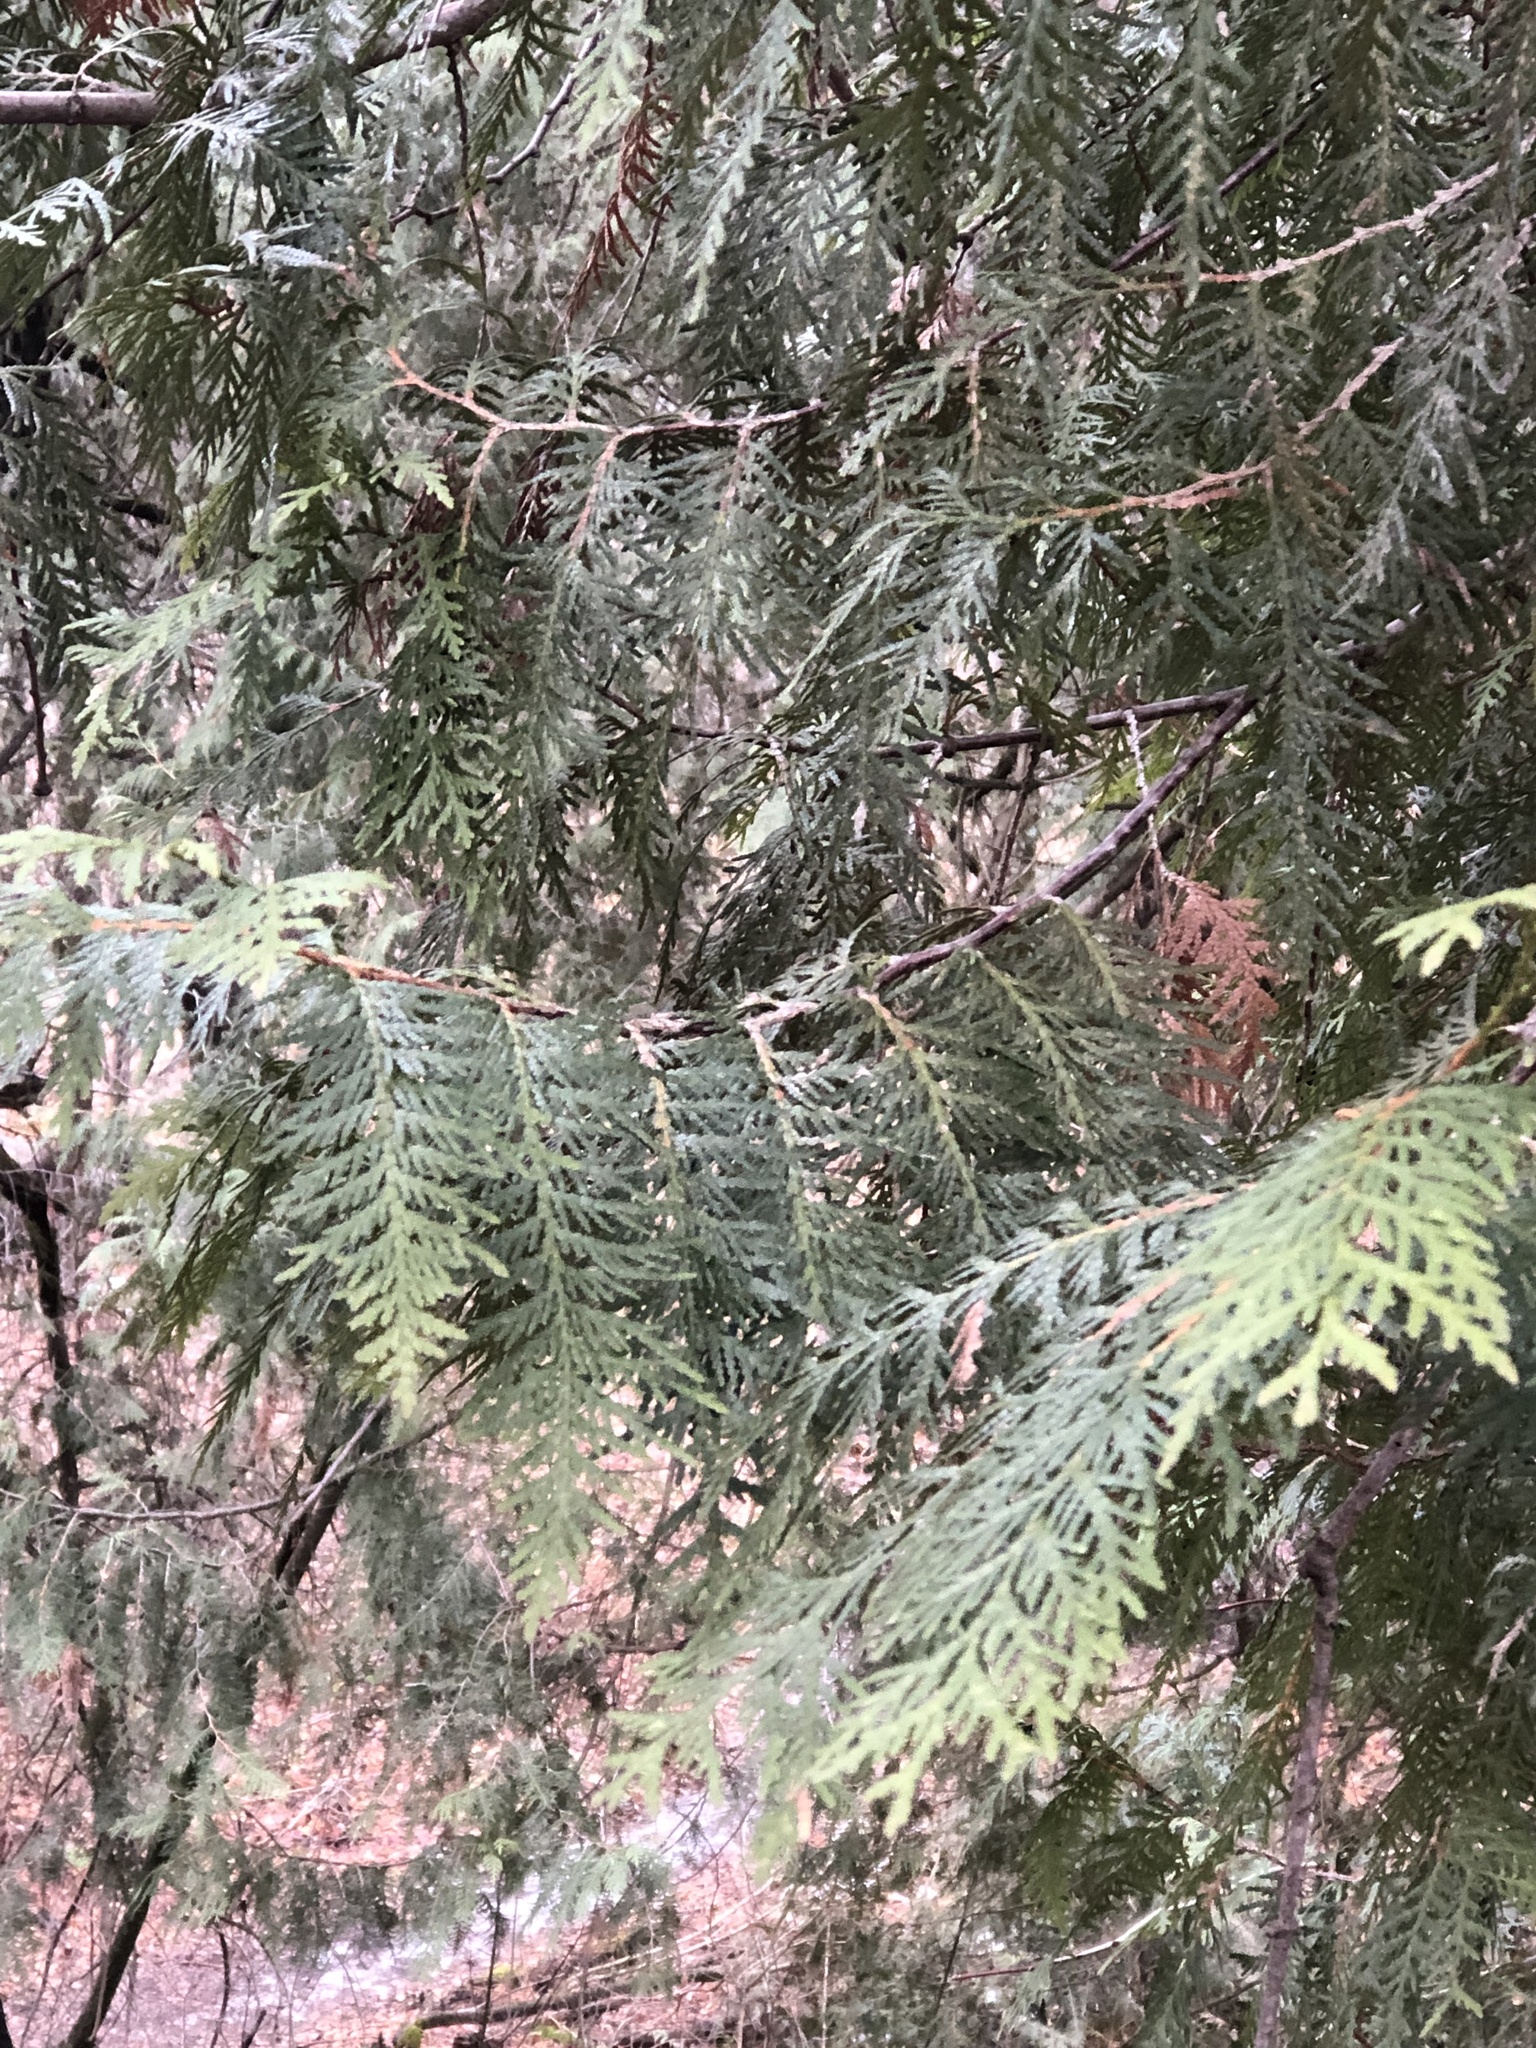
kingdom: Plantae
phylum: Tracheophyta
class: Pinopsida
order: Pinales
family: Cupressaceae
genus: Thuja
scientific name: Thuja occidentalis
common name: Northern white-cedar
